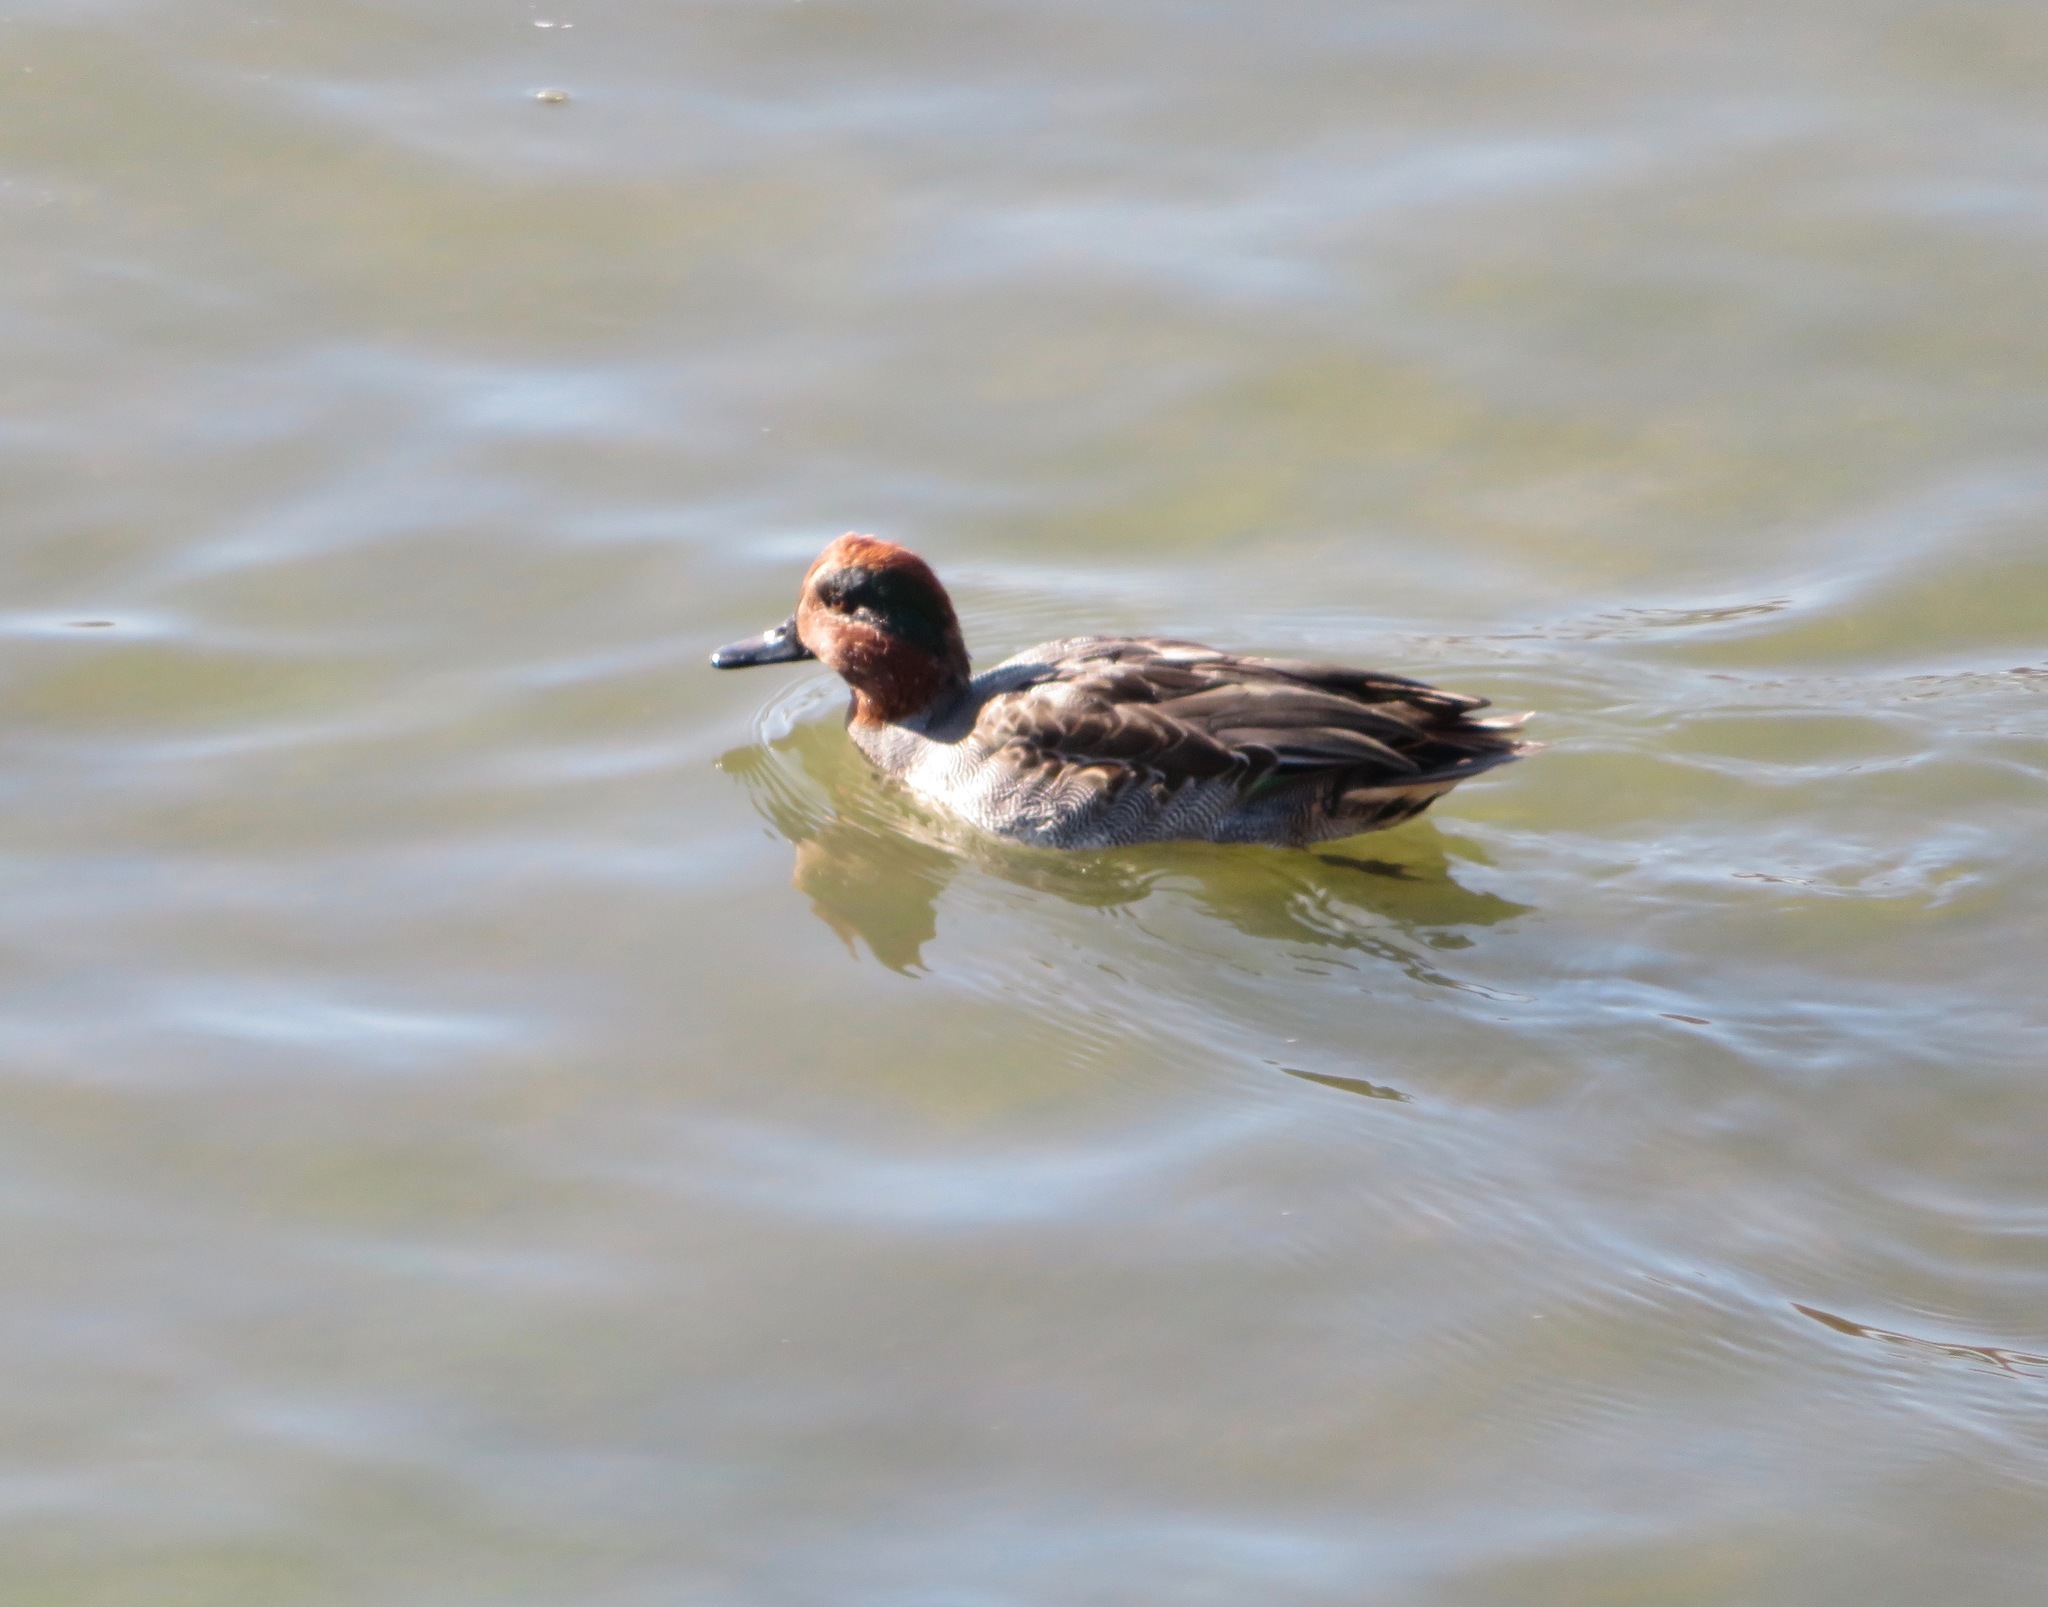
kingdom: Animalia
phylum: Chordata
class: Aves
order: Anseriformes
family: Anatidae
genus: Anas
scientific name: Anas crecca
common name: Eurasian teal
